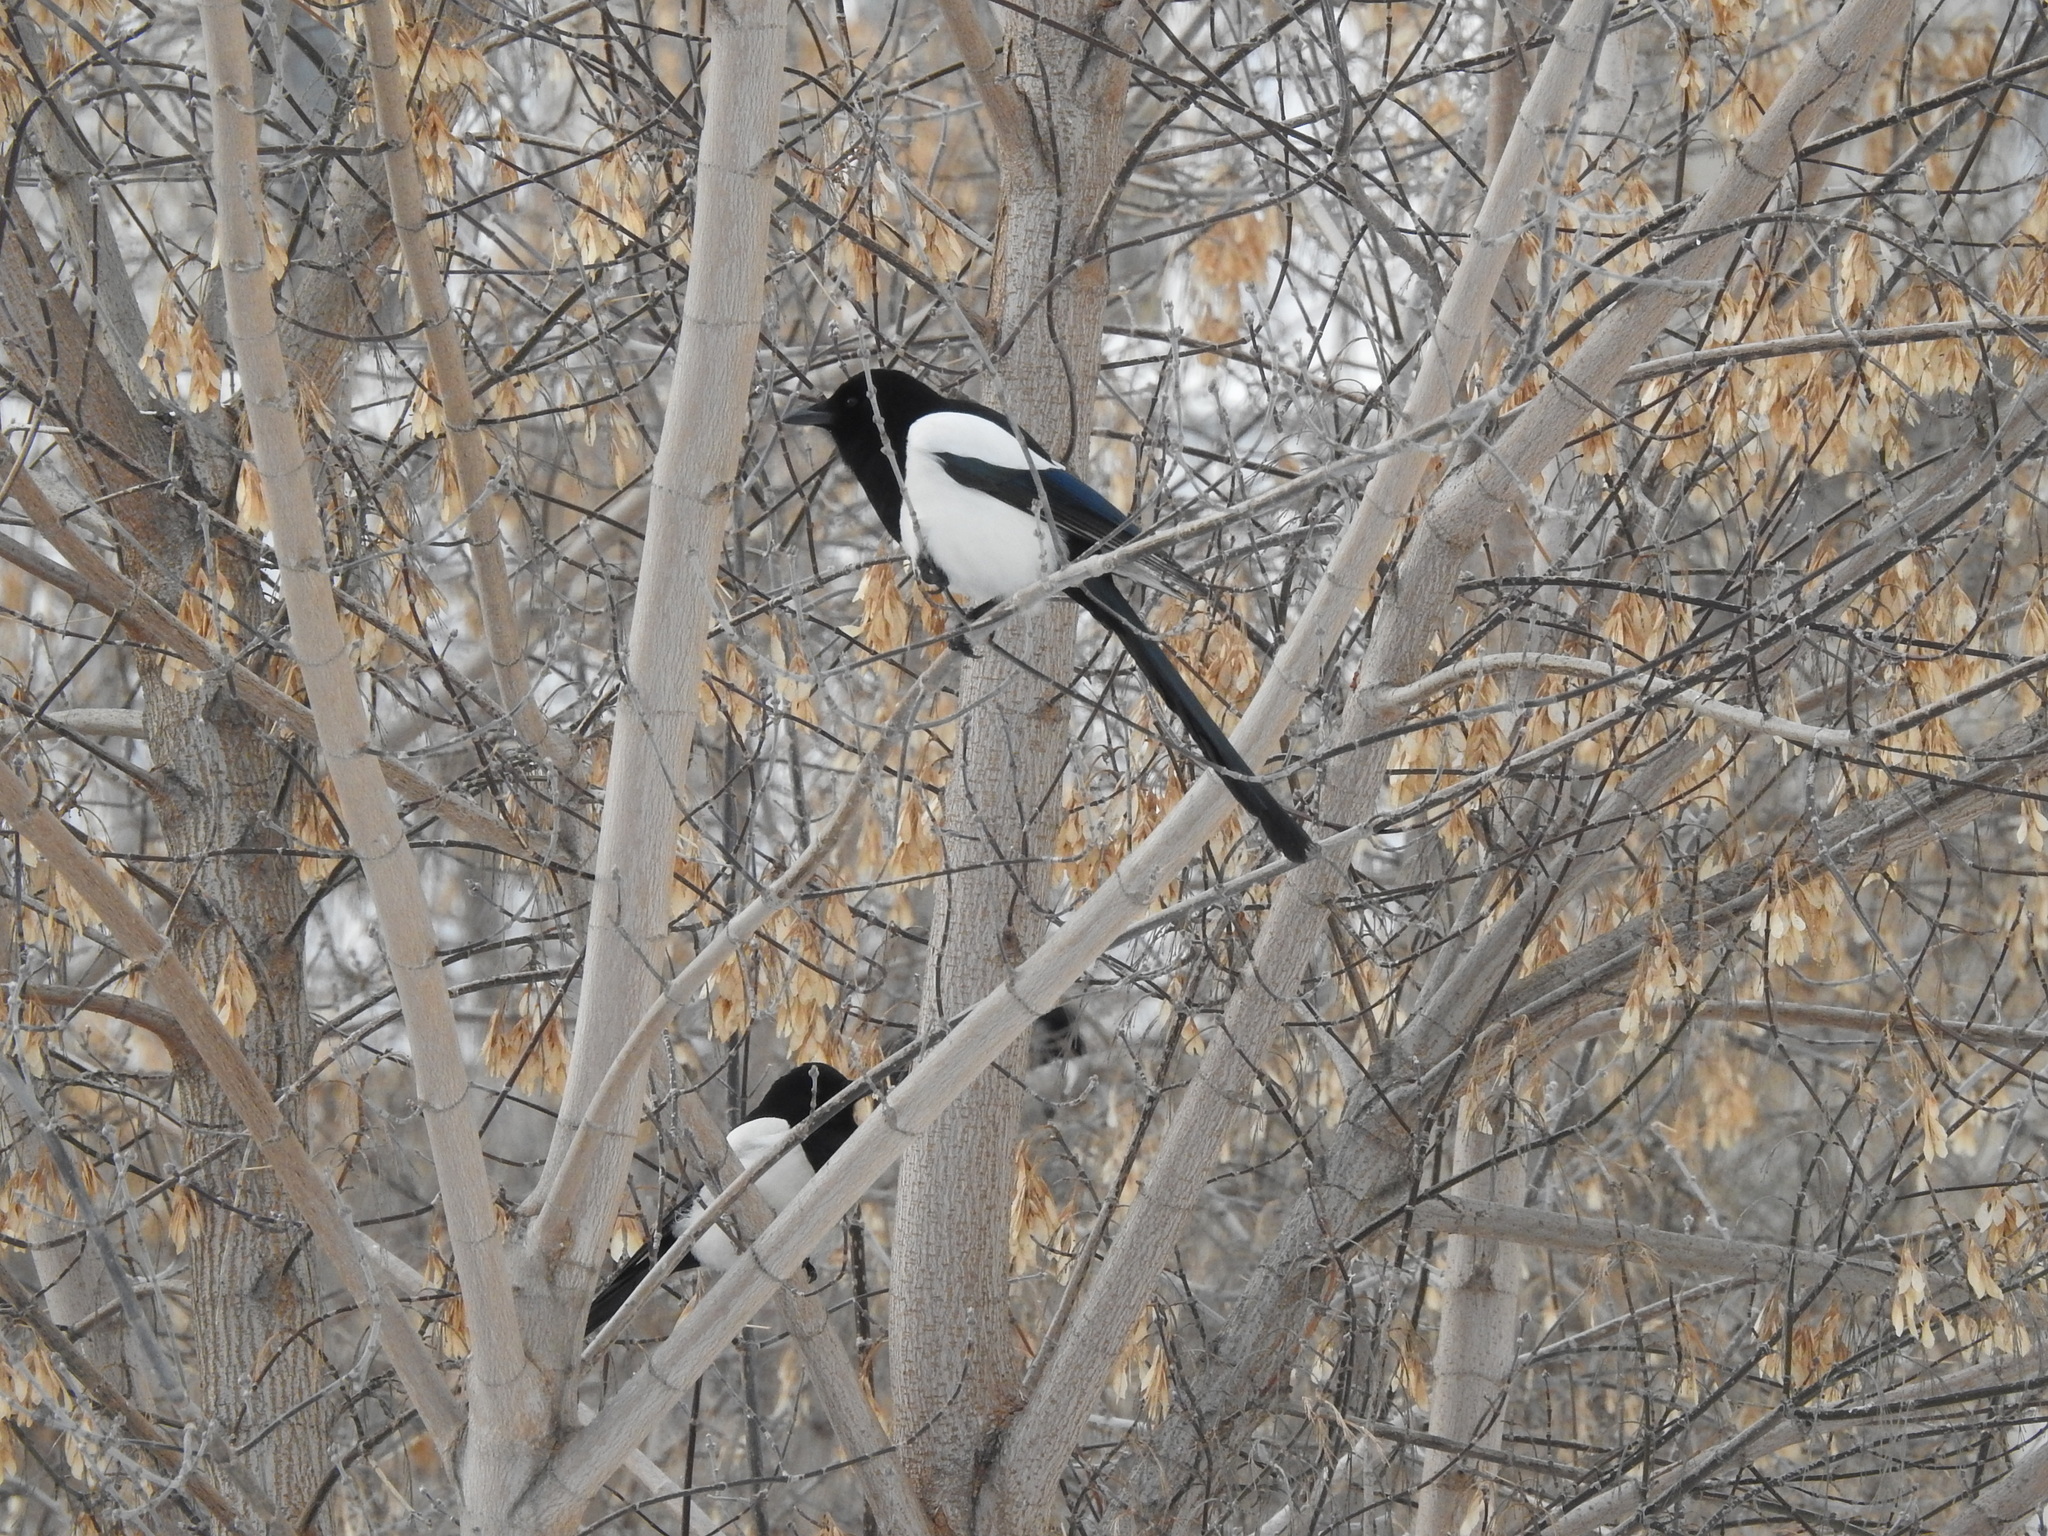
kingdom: Animalia
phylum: Chordata
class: Aves
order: Passeriformes
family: Corvidae
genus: Pica
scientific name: Pica pica
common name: Eurasian magpie
